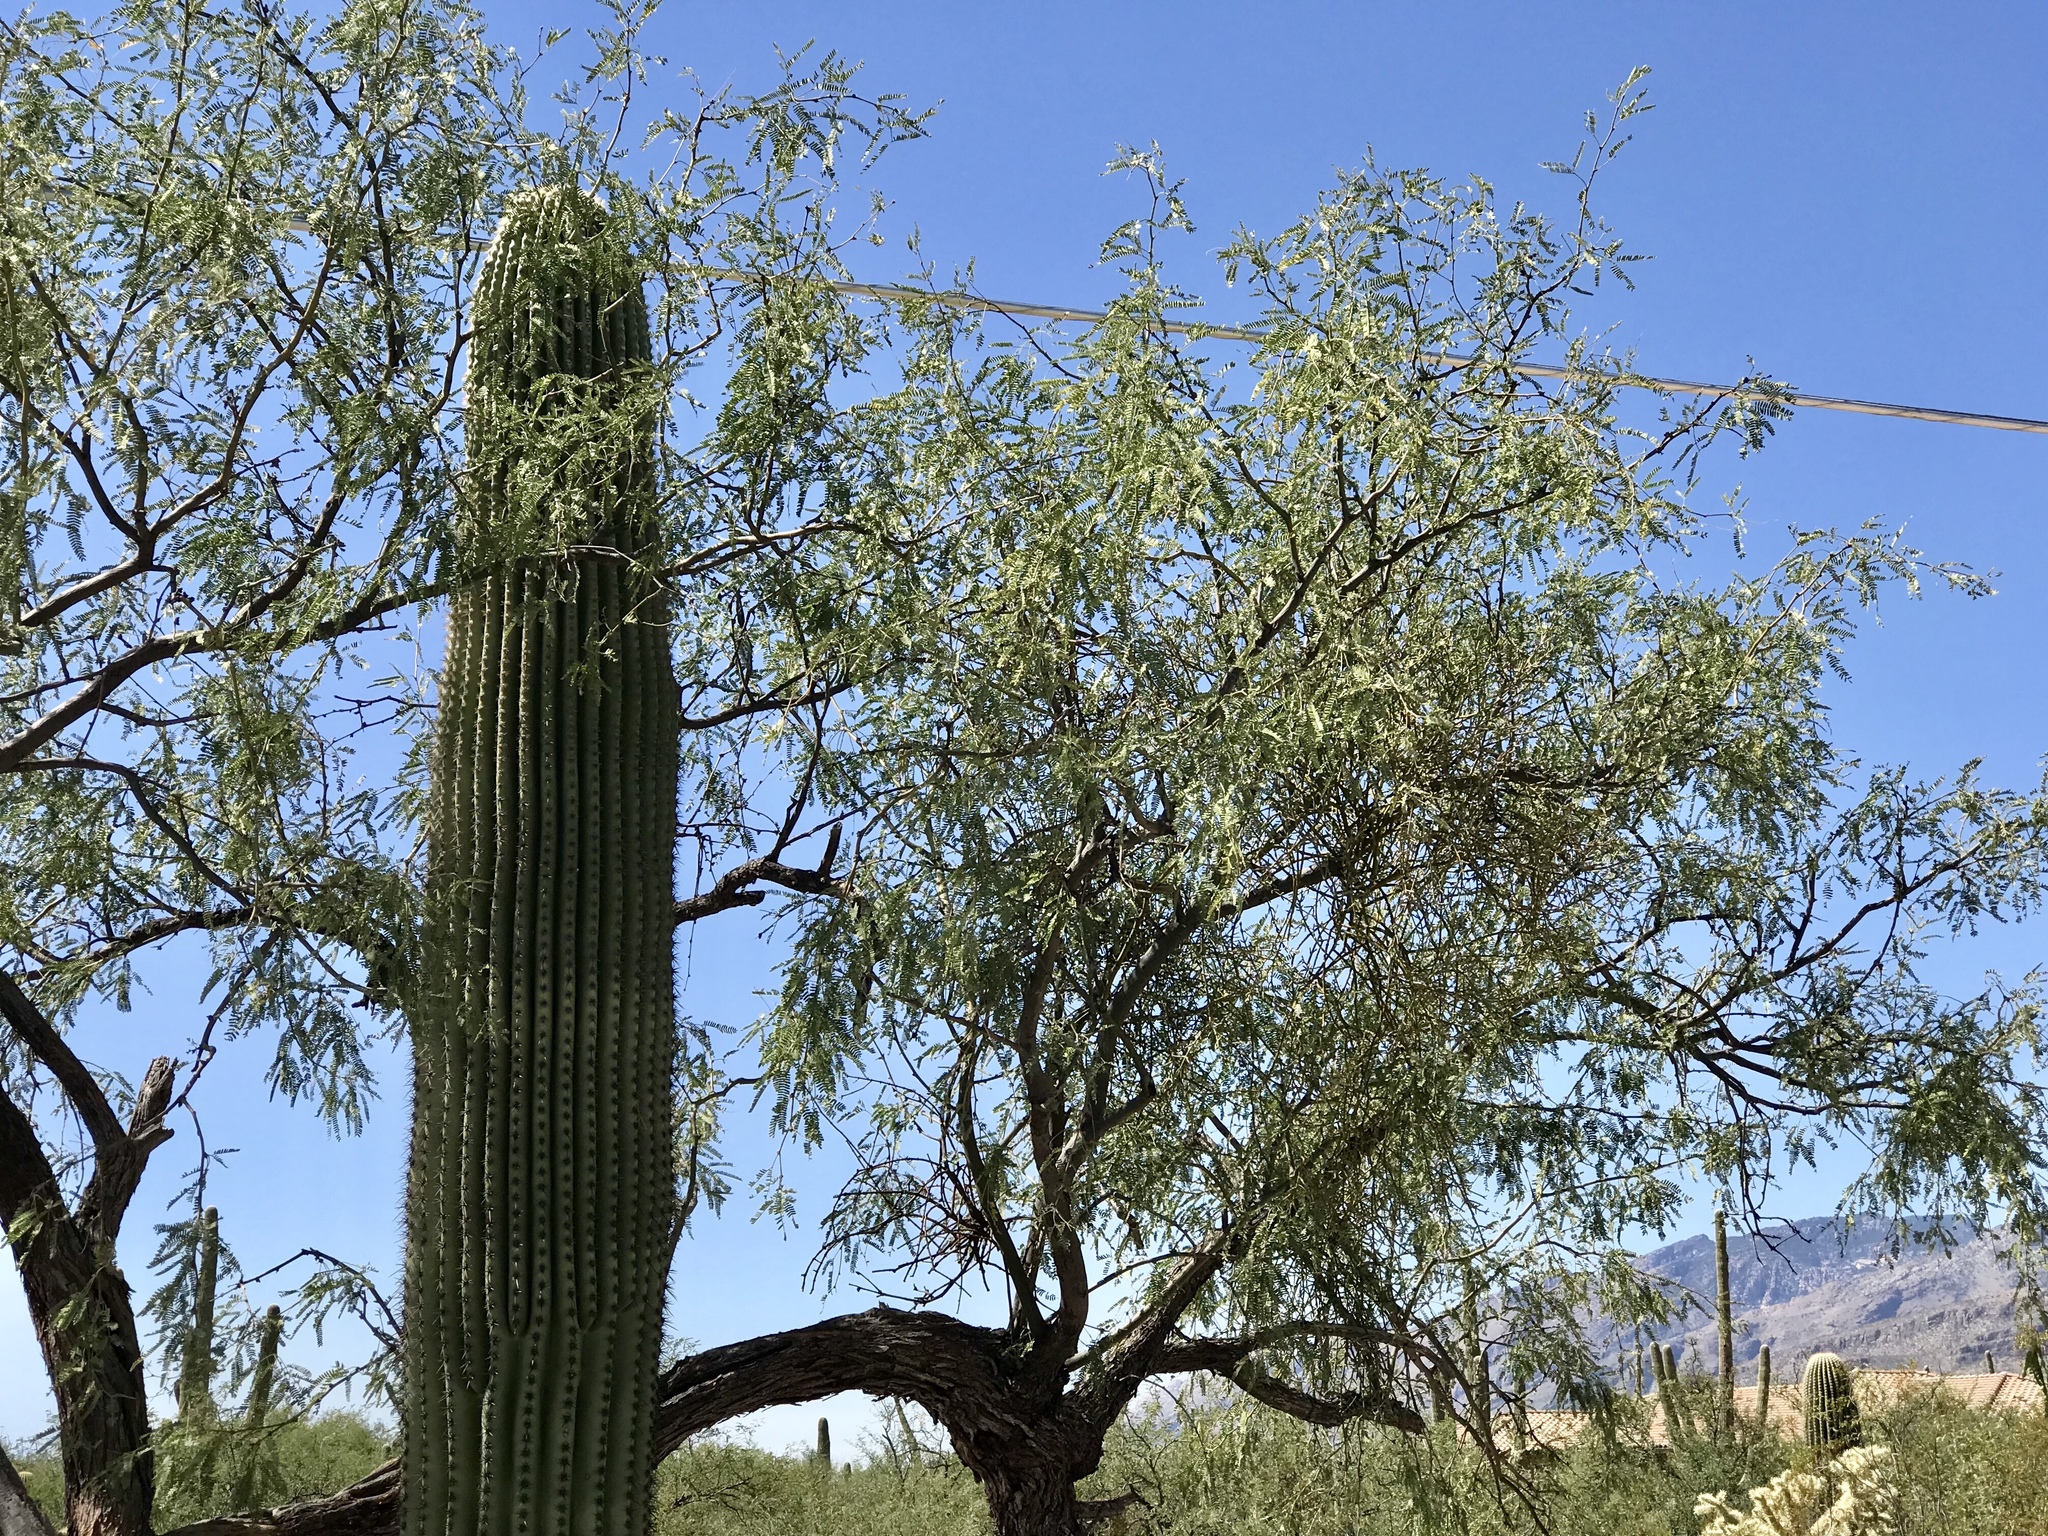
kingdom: Plantae
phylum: Tracheophyta
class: Magnoliopsida
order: Fabales
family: Fabaceae
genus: Prosopis
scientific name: Prosopis velutina
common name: Velvet mesquite
